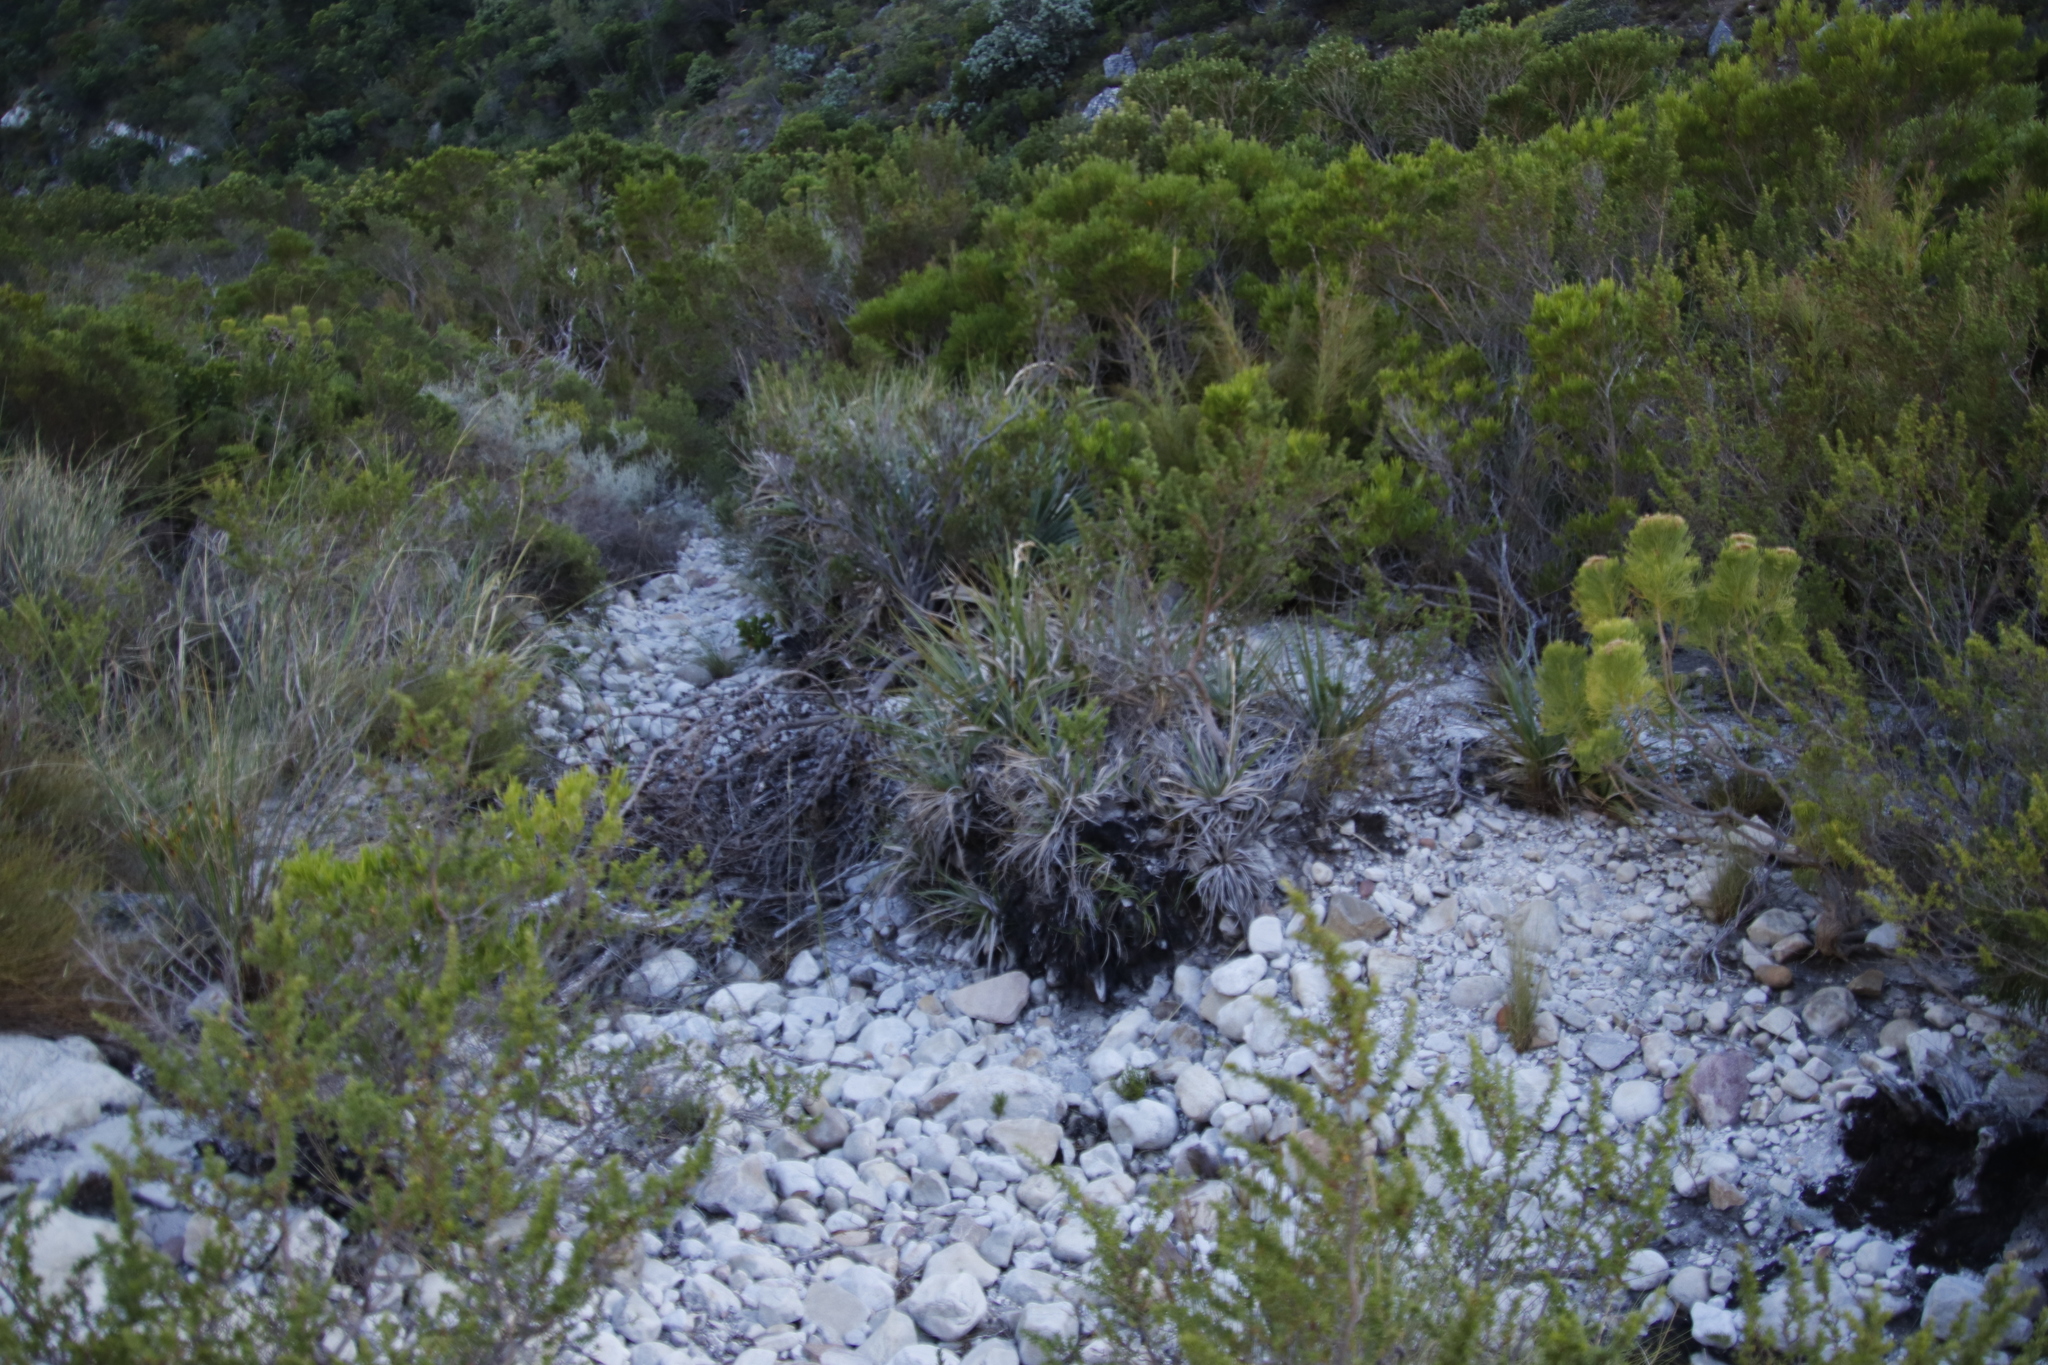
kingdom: Plantae
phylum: Tracheophyta
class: Liliopsida
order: Poales
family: Thurniaceae
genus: Prionium
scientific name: Prionium serratum
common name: Palmiet
